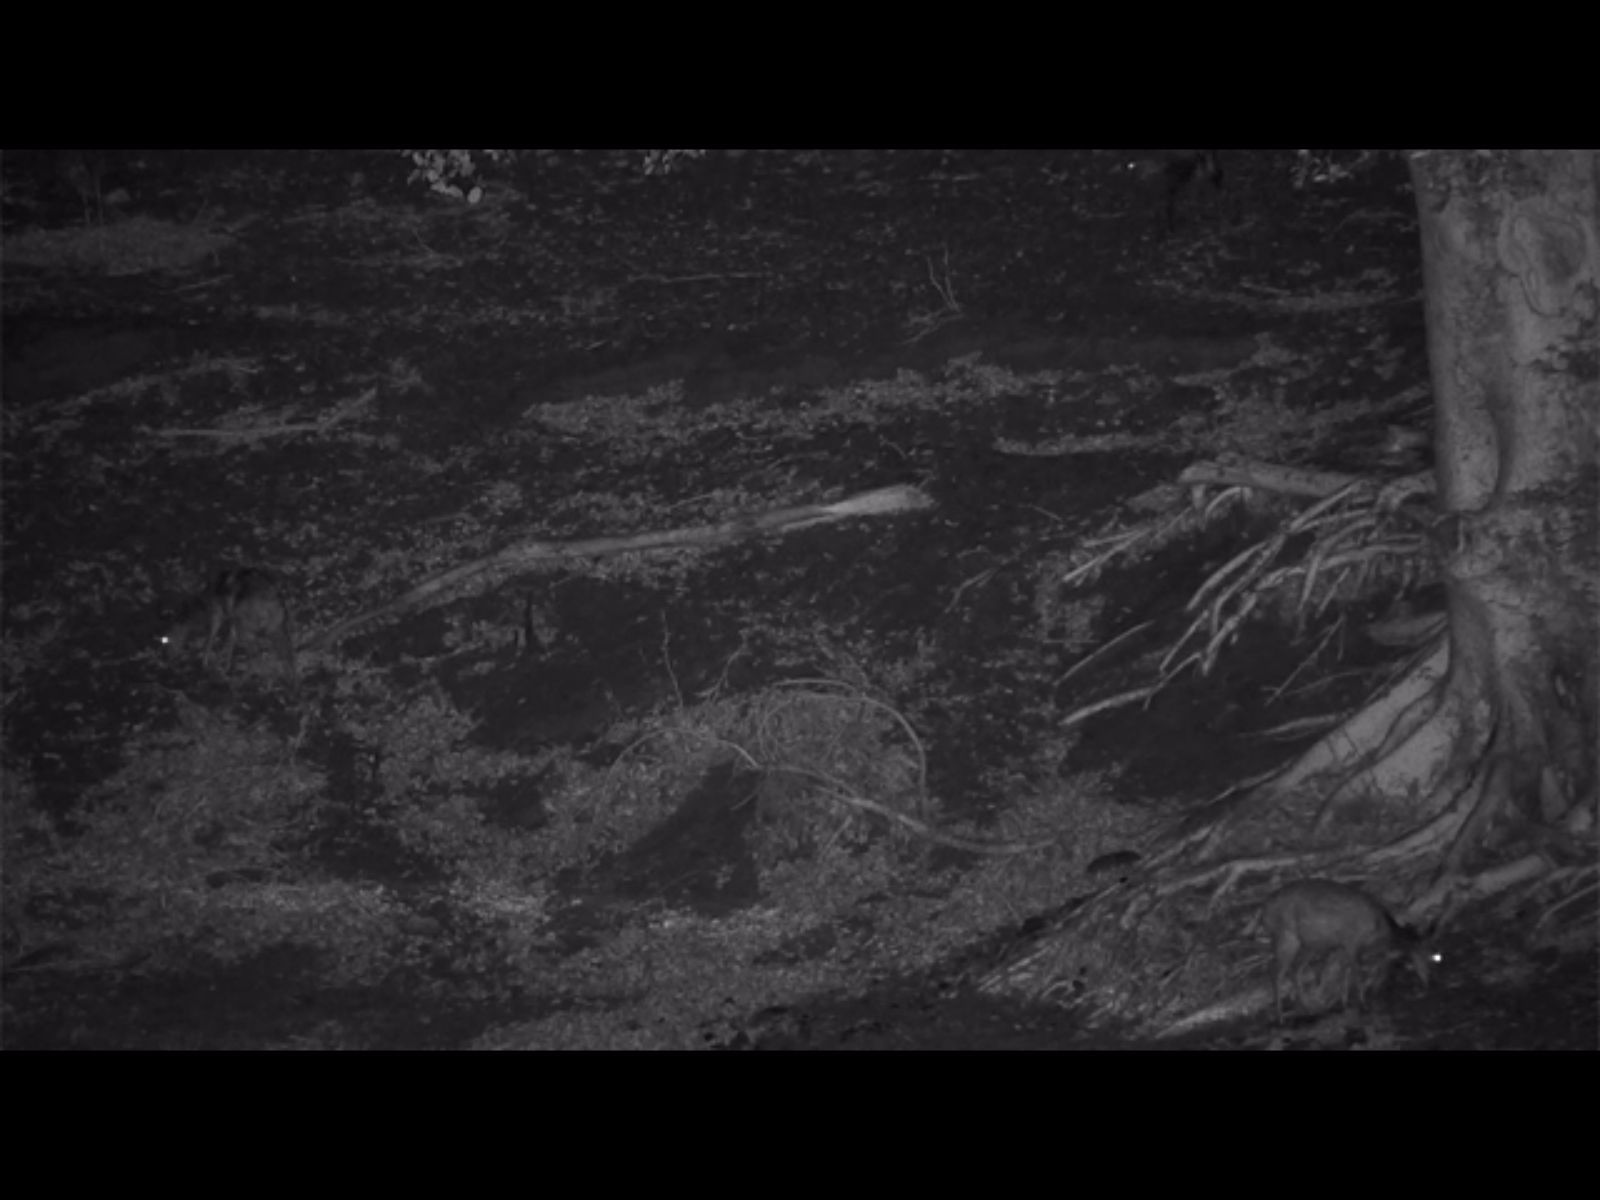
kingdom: Animalia
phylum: Chordata
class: Mammalia
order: Artiodactyla
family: Bovidae
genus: Tragelaphus
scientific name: Tragelaphus scriptus
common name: Bushbuck
